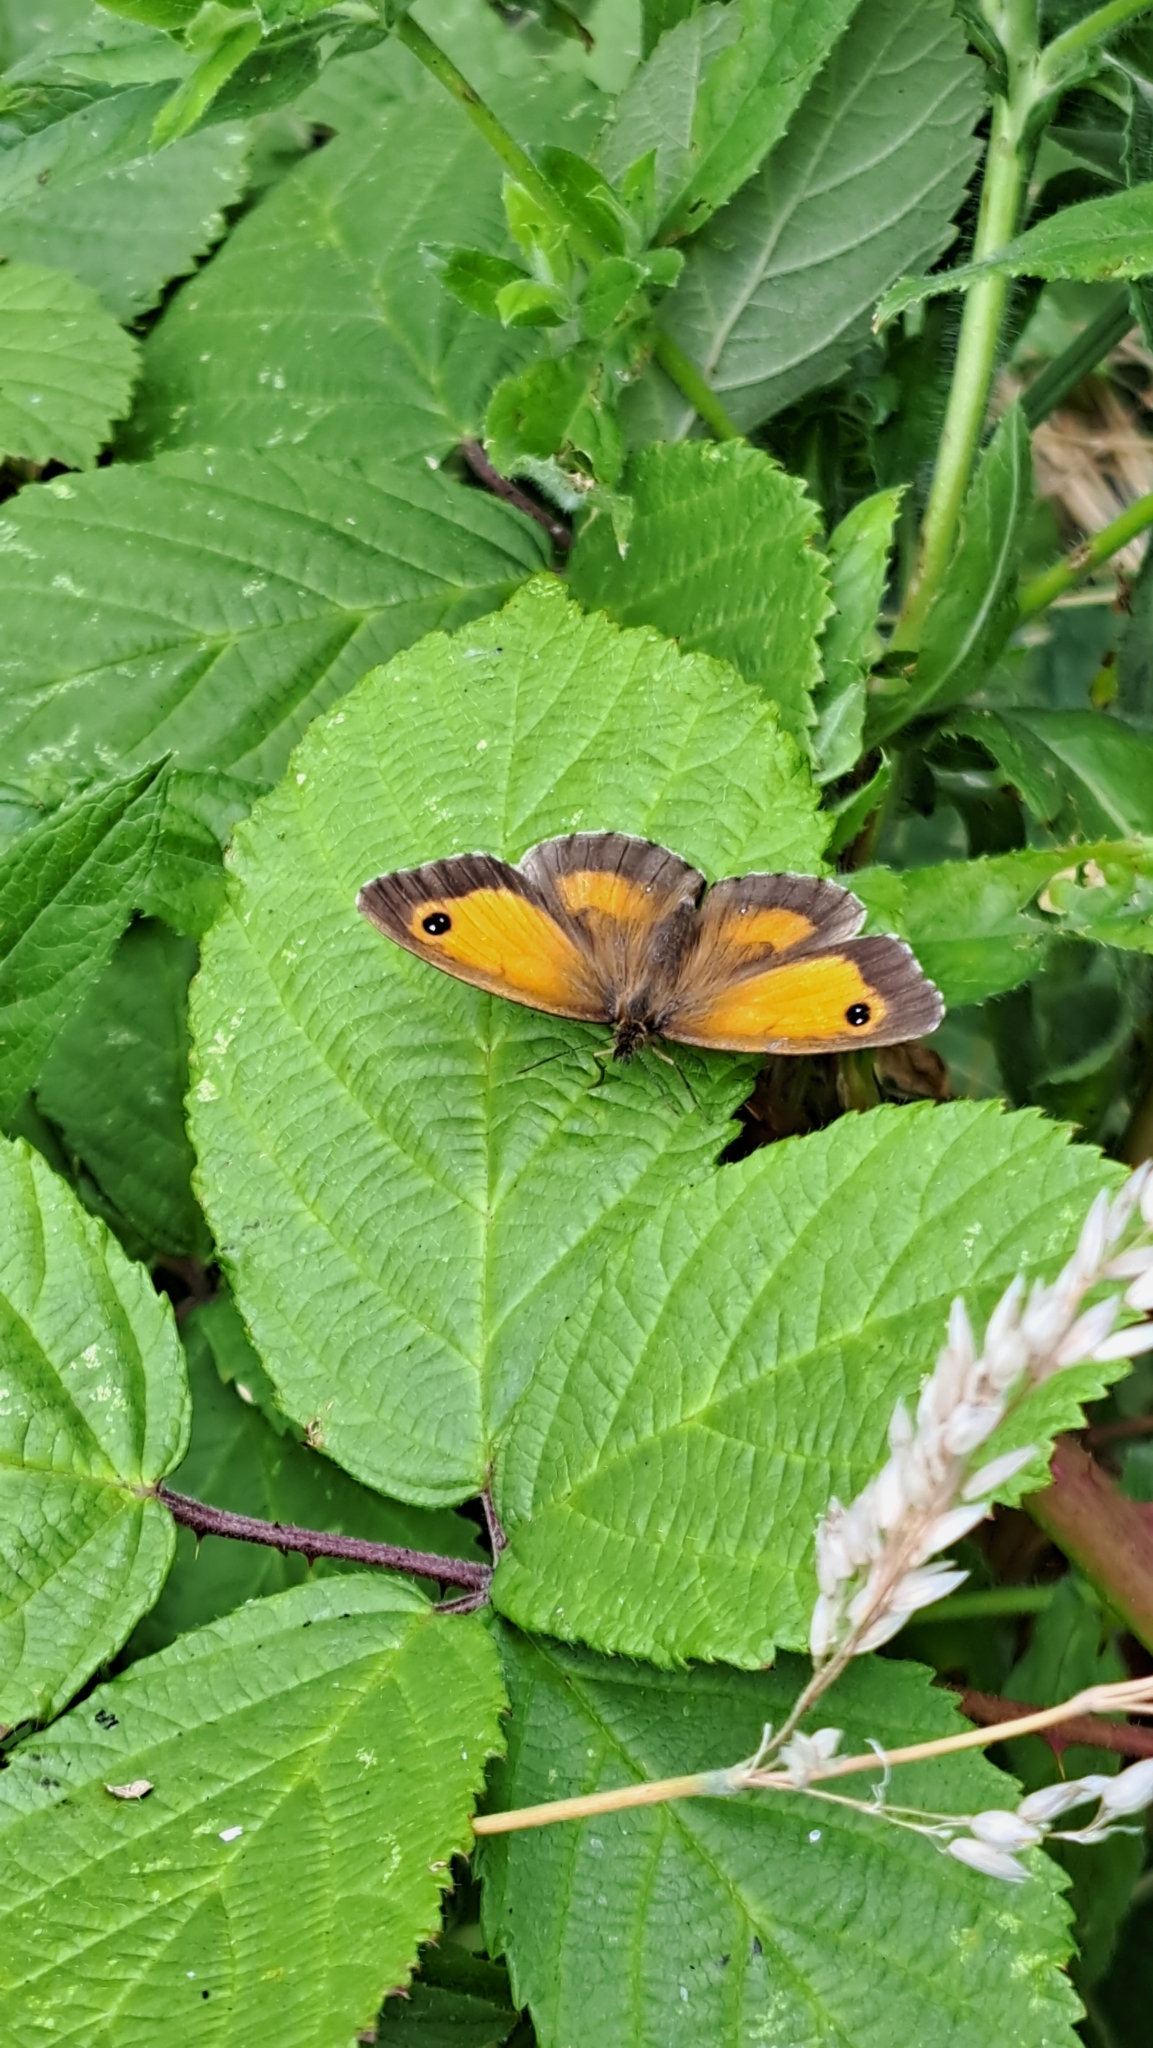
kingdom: Animalia
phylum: Arthropoda
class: Insecta
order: Lepidoptera
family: Nymphalidae
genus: Pyronia
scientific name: Pyronia tithonus
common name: Gatekeeper
